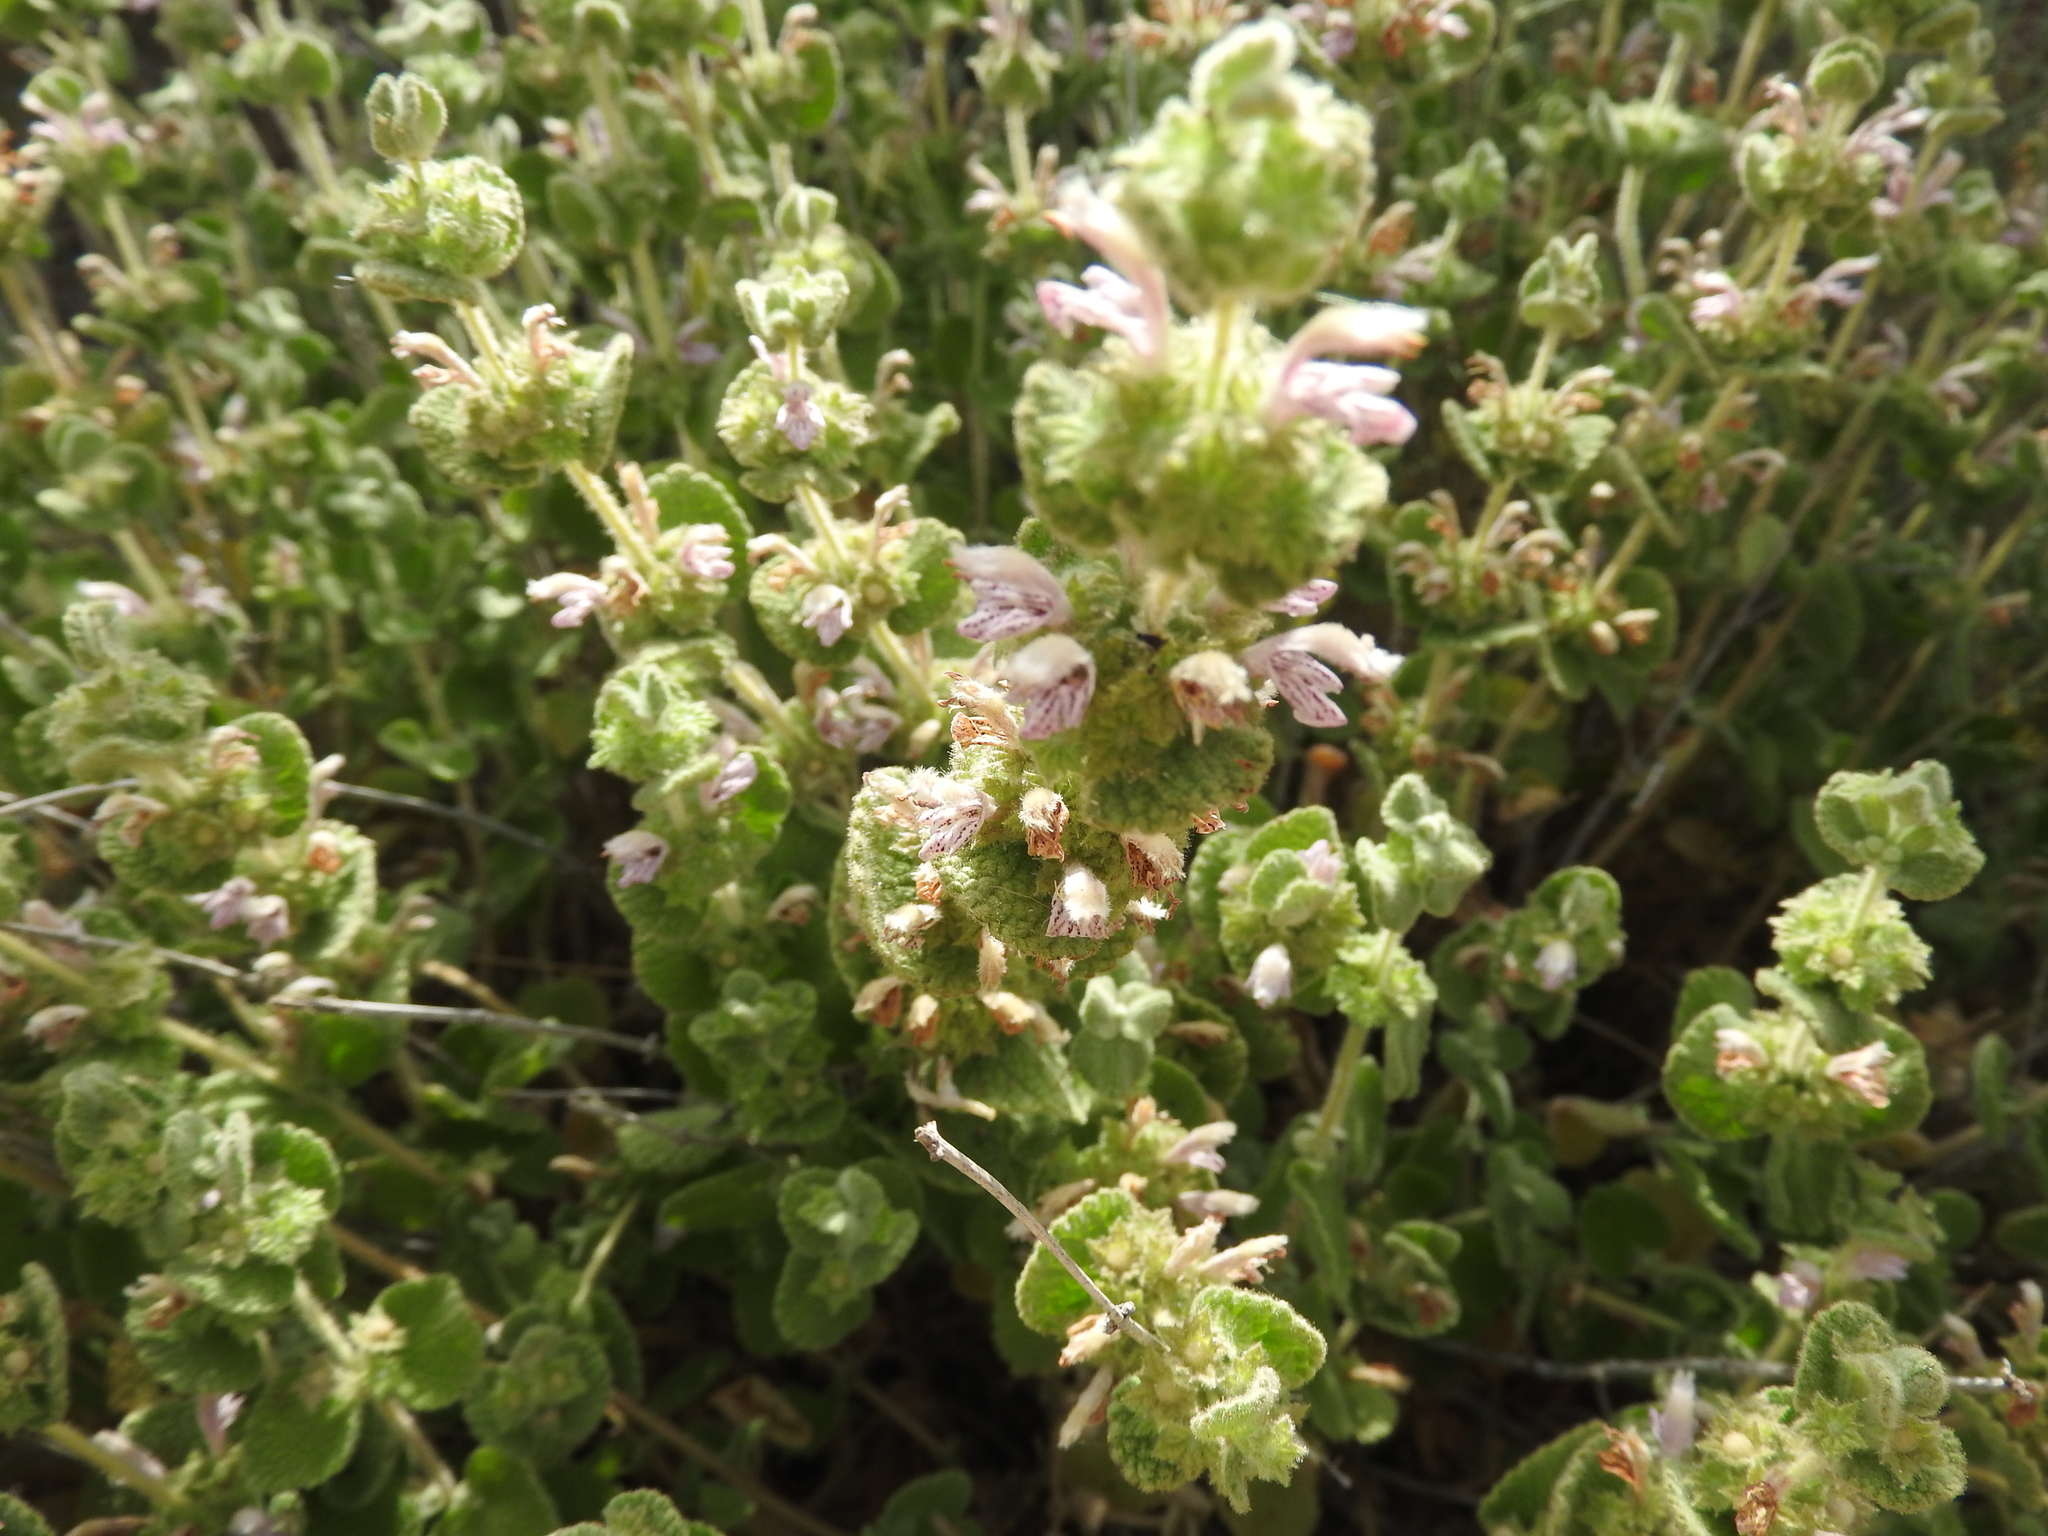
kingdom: Plantae
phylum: Tracheophyta
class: Magnoliopsida
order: Lamiales
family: Lamiaceae
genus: Pseudodictamnus
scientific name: Pseudodictamnus hirsutus
